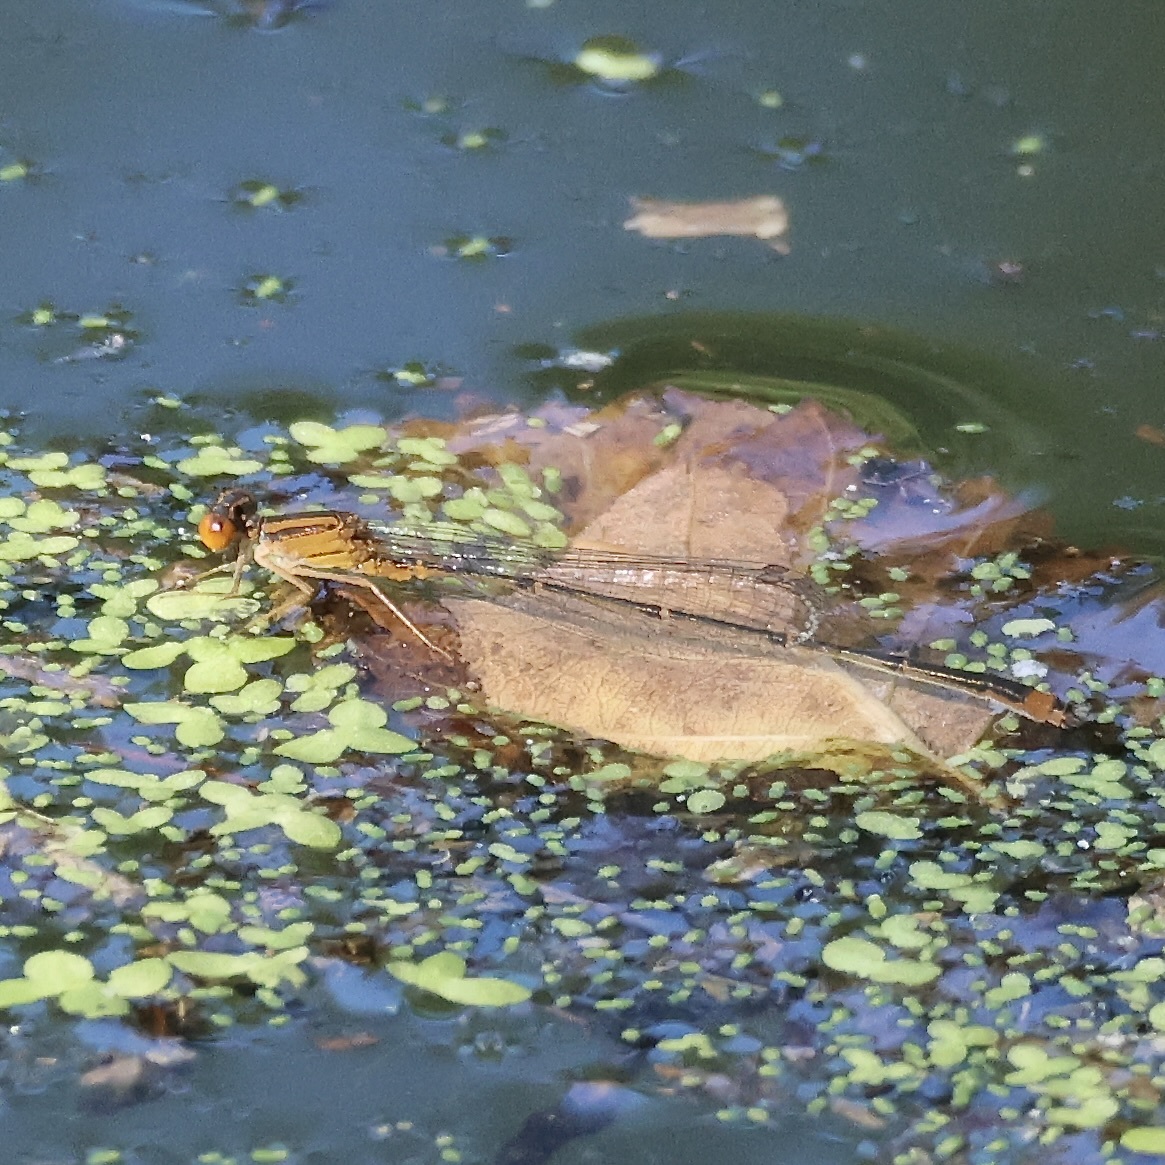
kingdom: Animalia
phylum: Arthropoda
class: Insecta
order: Odonata
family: Coenagrionidae
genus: Enallagma
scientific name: Enallagma signatum
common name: Orange bluet
